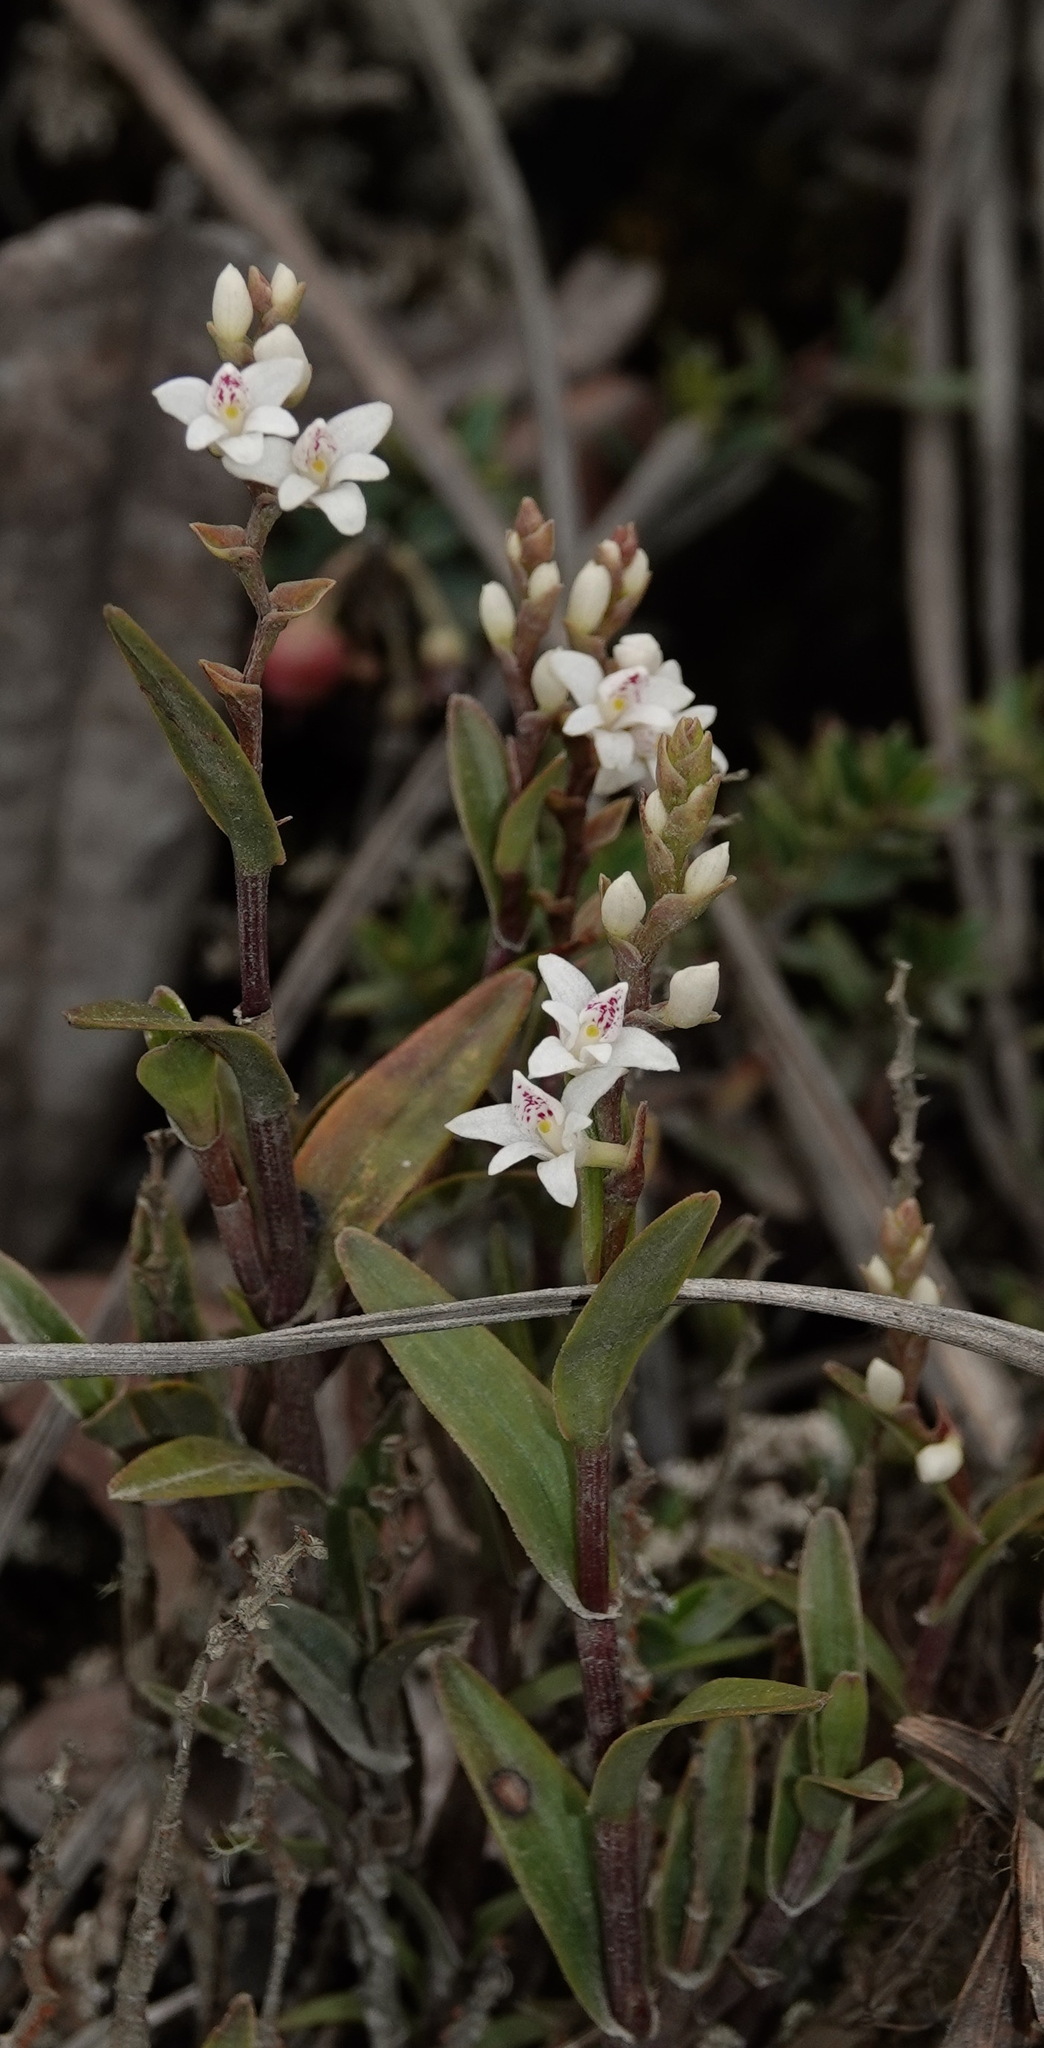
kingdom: Plantae
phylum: Tracheophyta
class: Liliopsida
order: Asparagales
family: Orchidaceae
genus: Epidendrum
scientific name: Epidendrum fimbriatum
